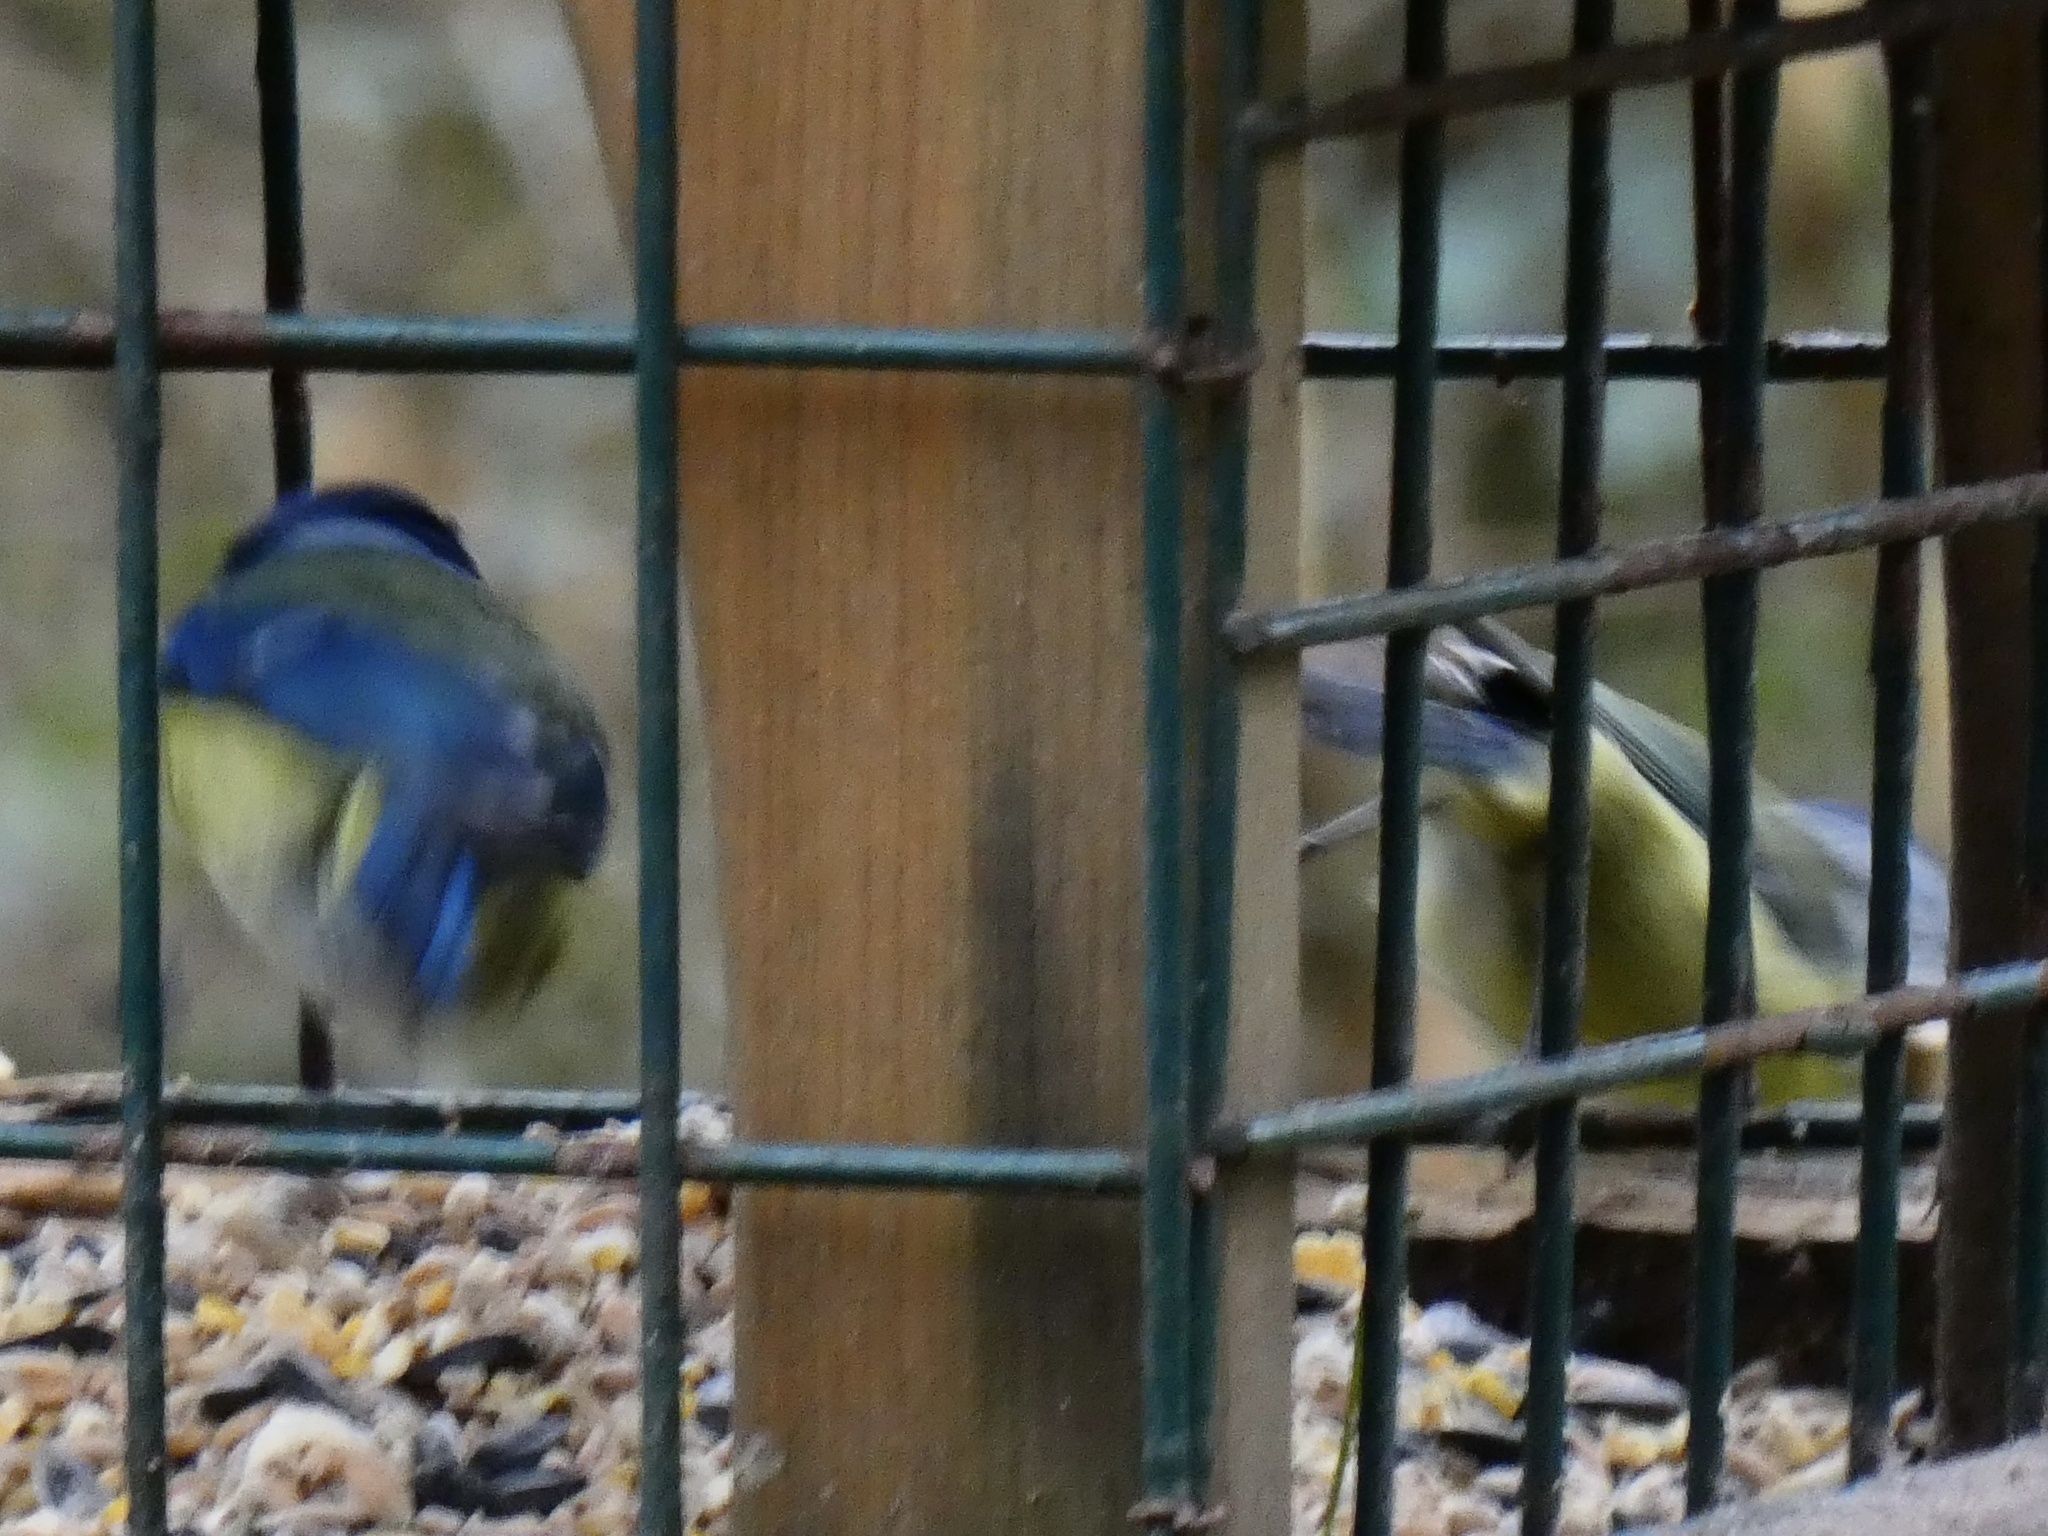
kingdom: Animalia
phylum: Chordata
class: Aves
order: Passeriformes
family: Paridae
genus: Cyanistes
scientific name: Cyanistes caeruleus
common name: Eurasian blue tit
